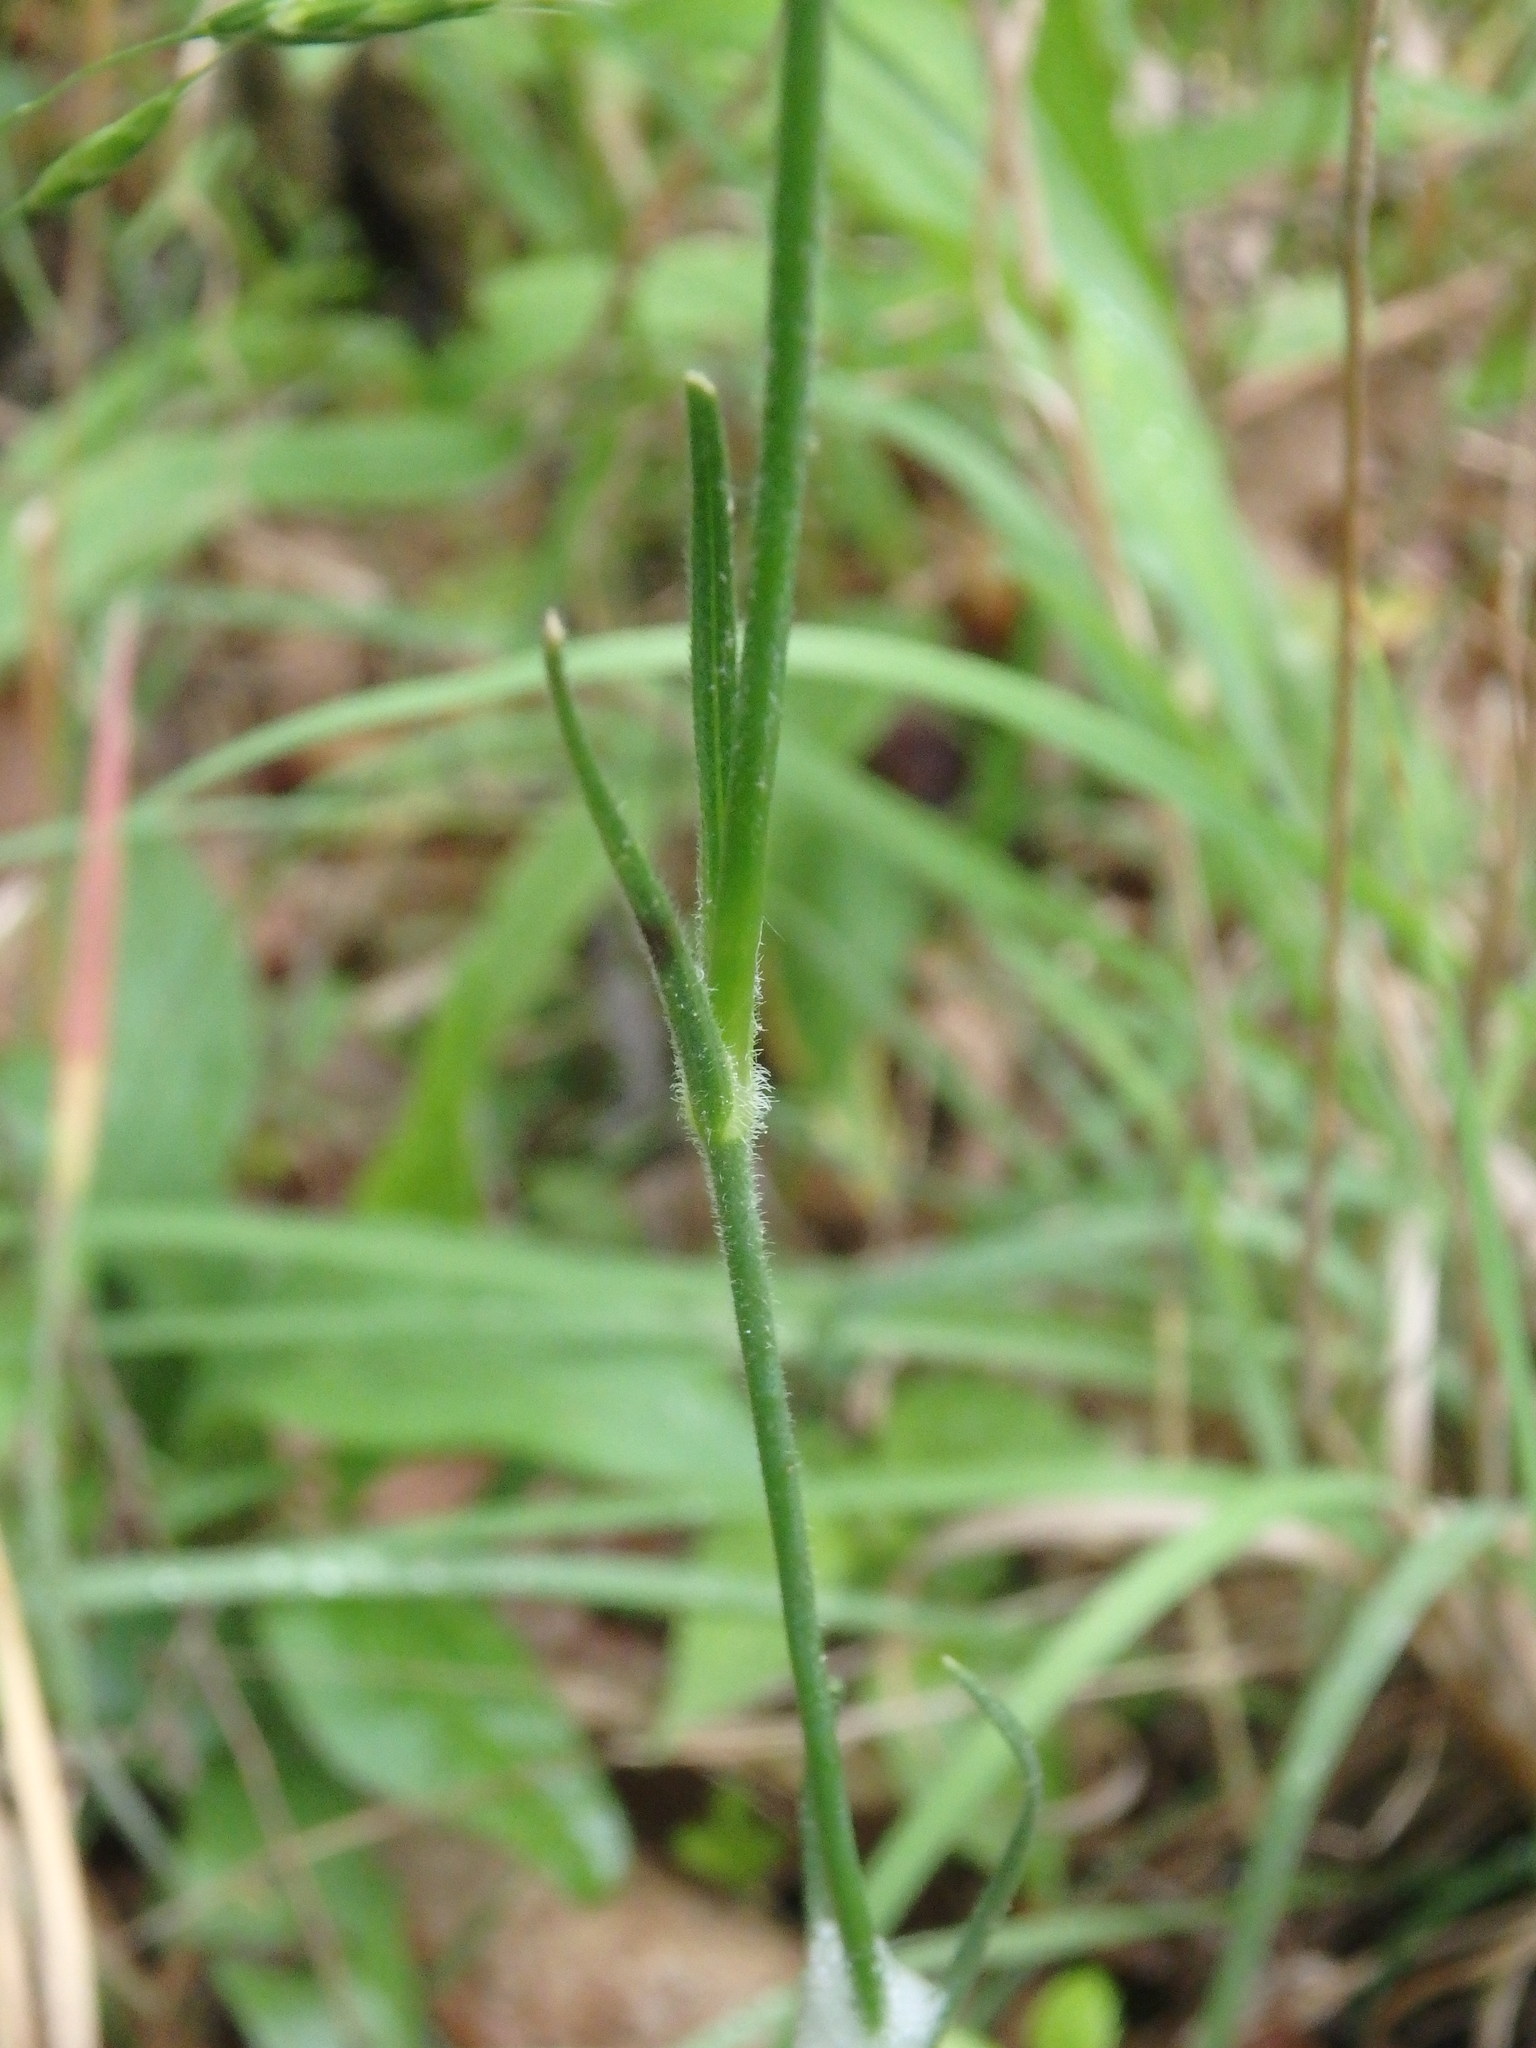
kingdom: Plantae
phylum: Tracheophyta
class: Magnoliopsida
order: Caryophyllales
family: Caryophyllaceae
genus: Dianthus
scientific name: Dianthus armeria
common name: Deptford pink
